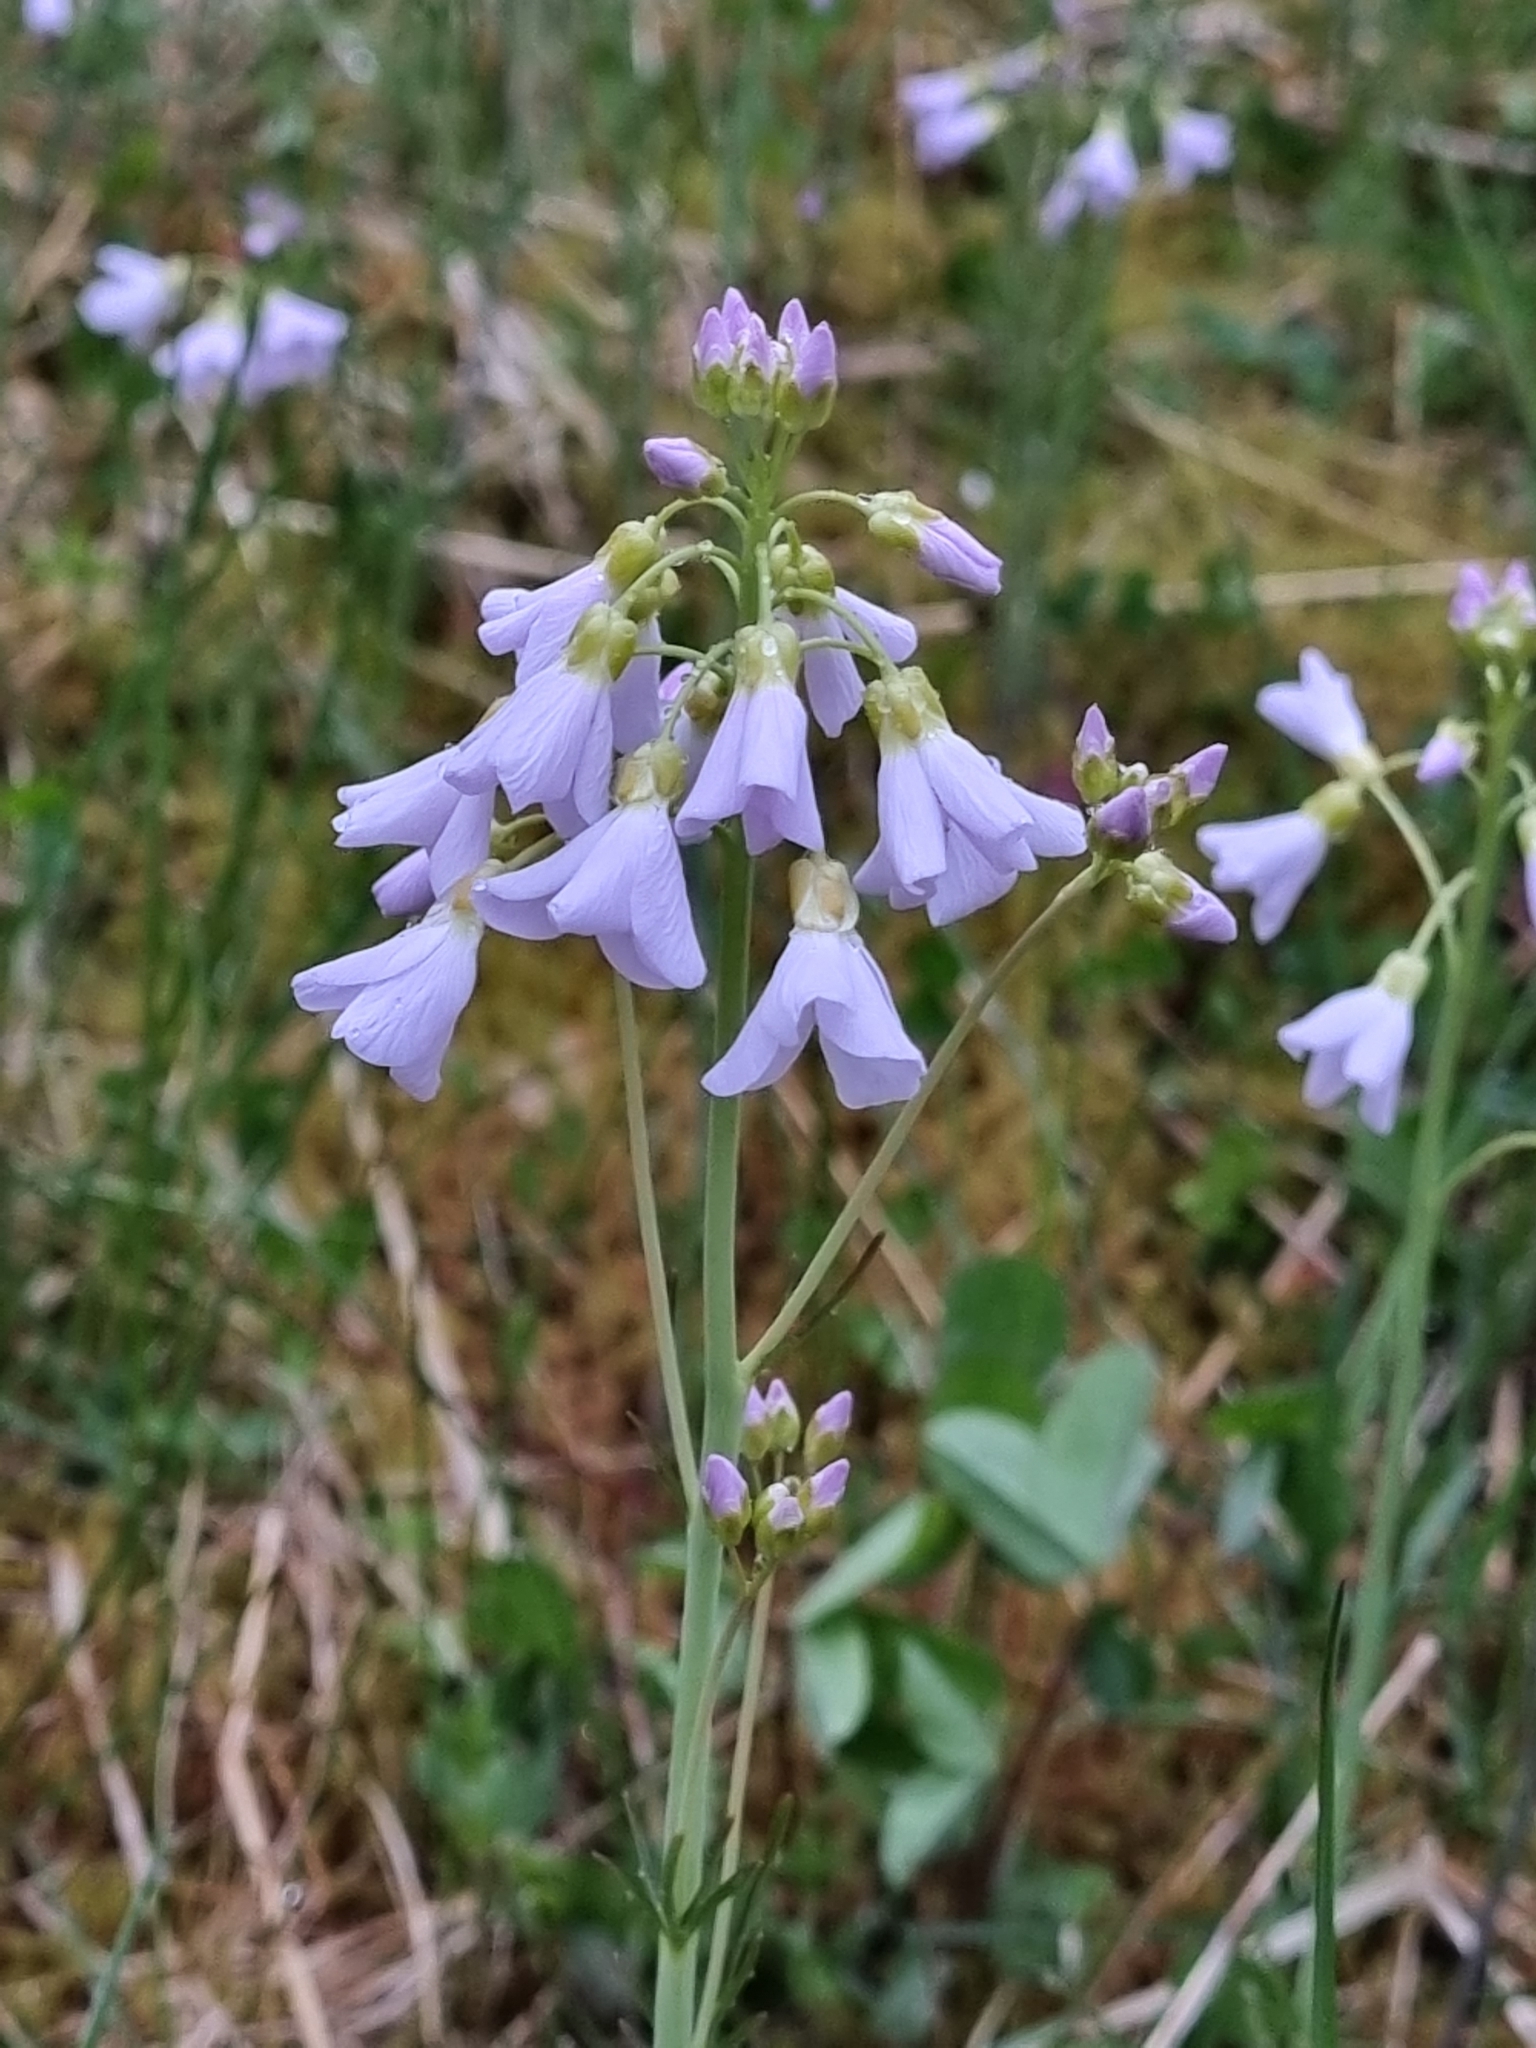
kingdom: Plantae
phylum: Tracheophyta
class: Magnoliopsida
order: Brassicales
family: Brassicaceae
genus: Cardamine
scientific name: Cardamine pratensis
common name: Cuckoo flower
